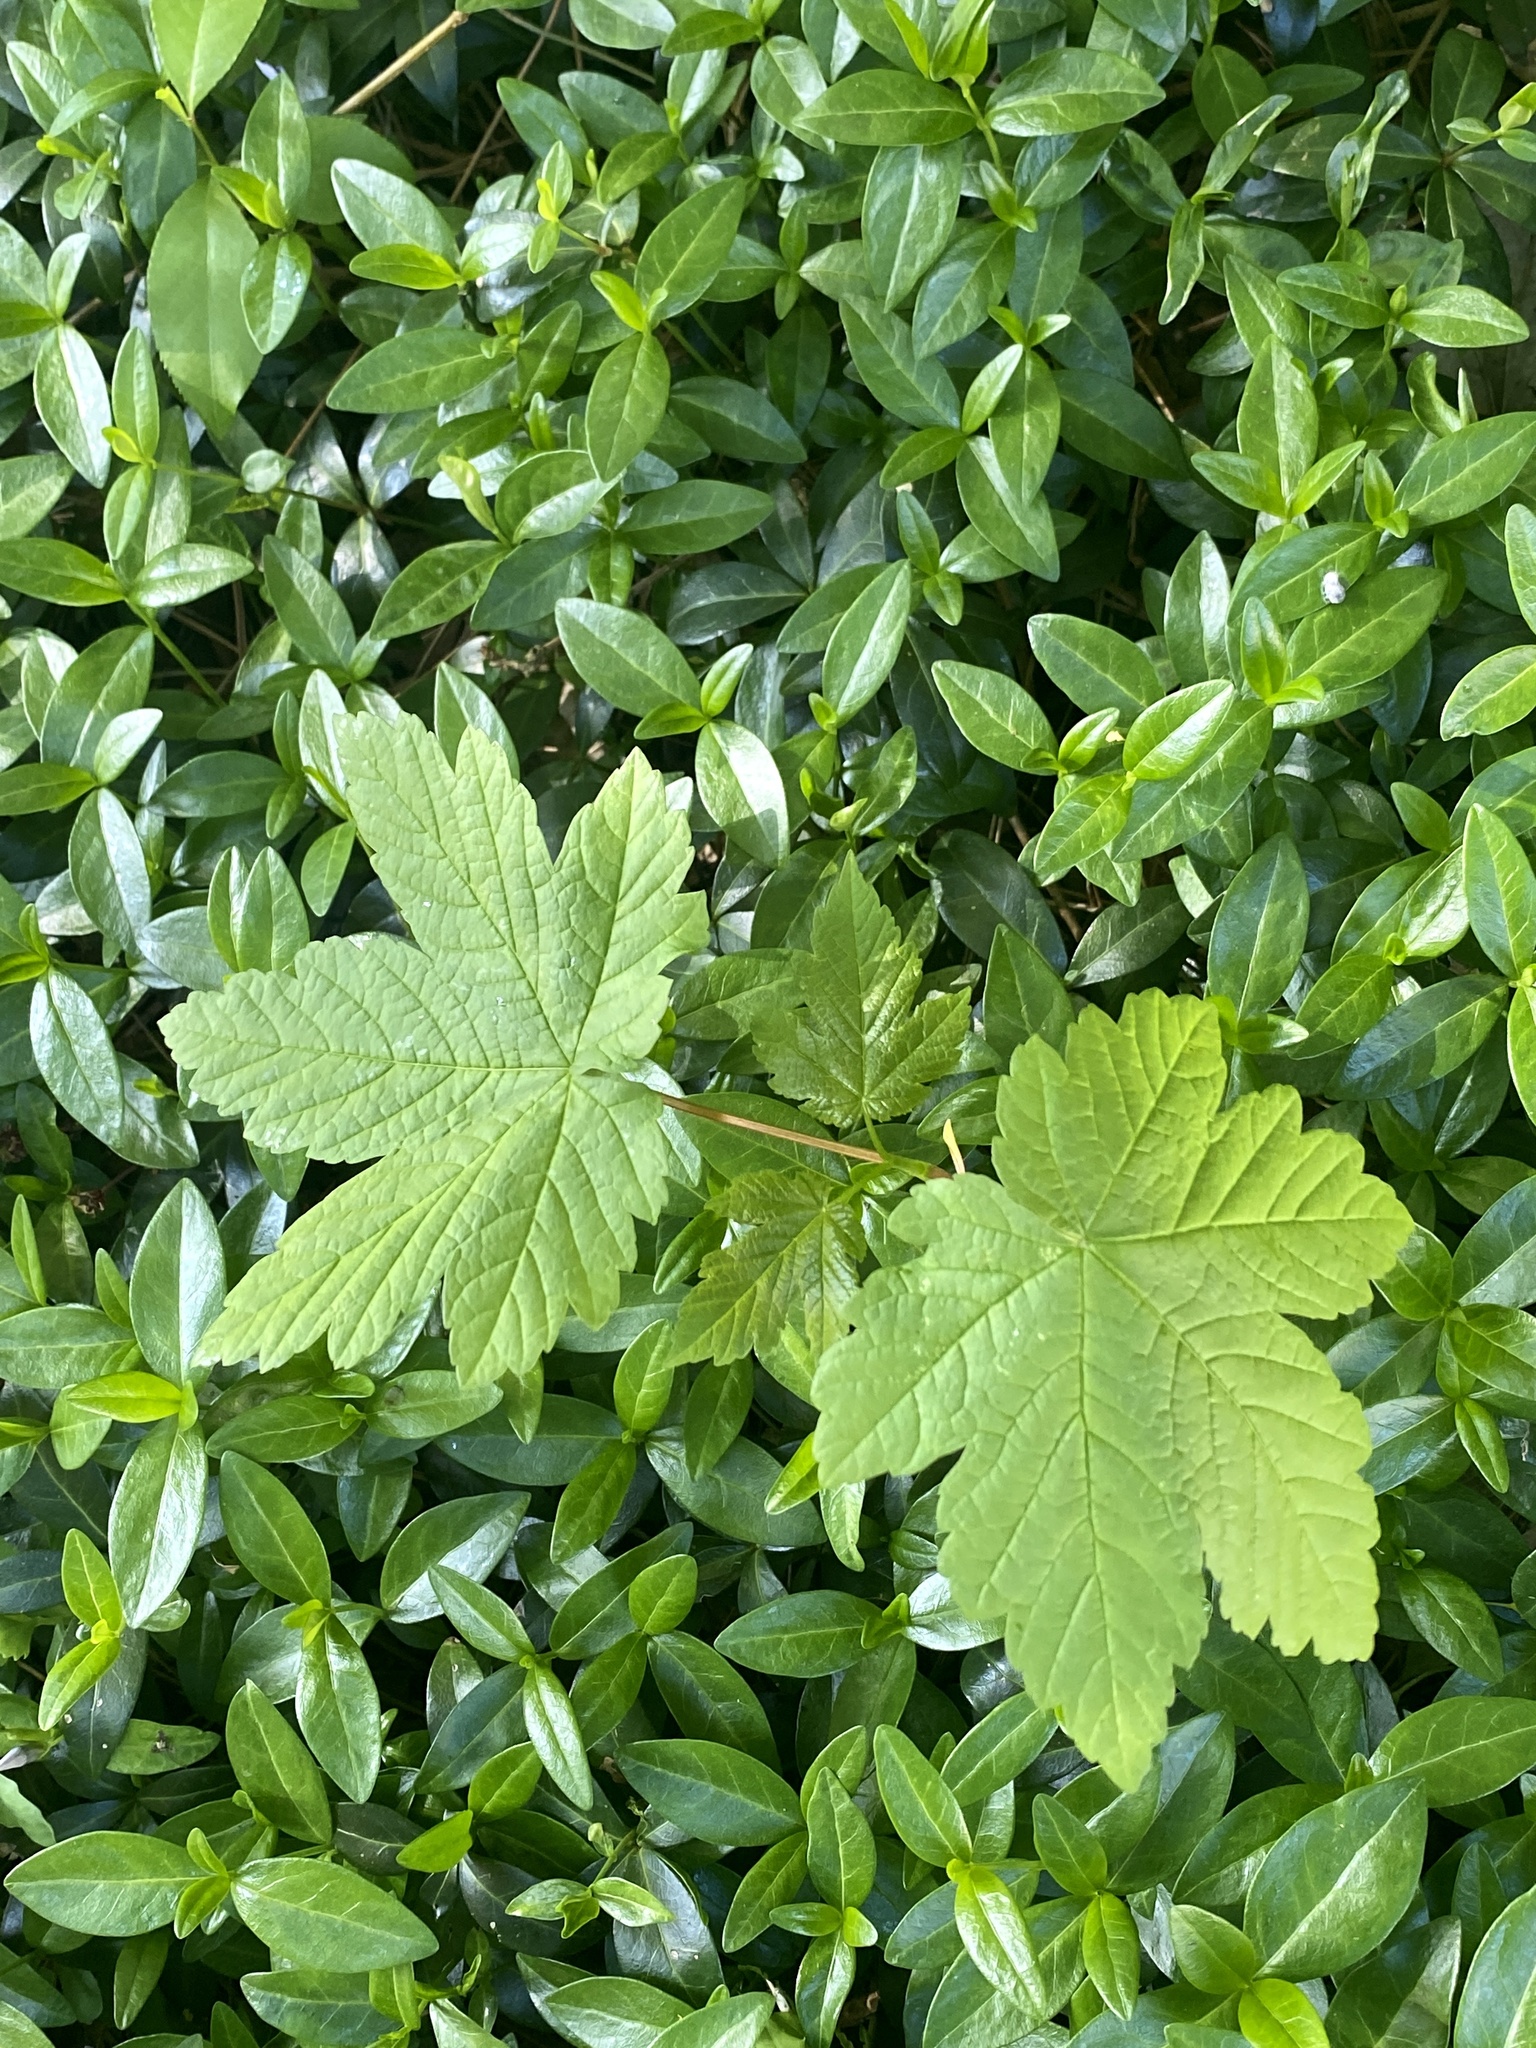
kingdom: Plantae
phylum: Tracheophyta
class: Magnoliopsida
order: Sapindales
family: Sapindaceae
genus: Acer
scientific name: Acer pseudoplatanus
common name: Sycamore
